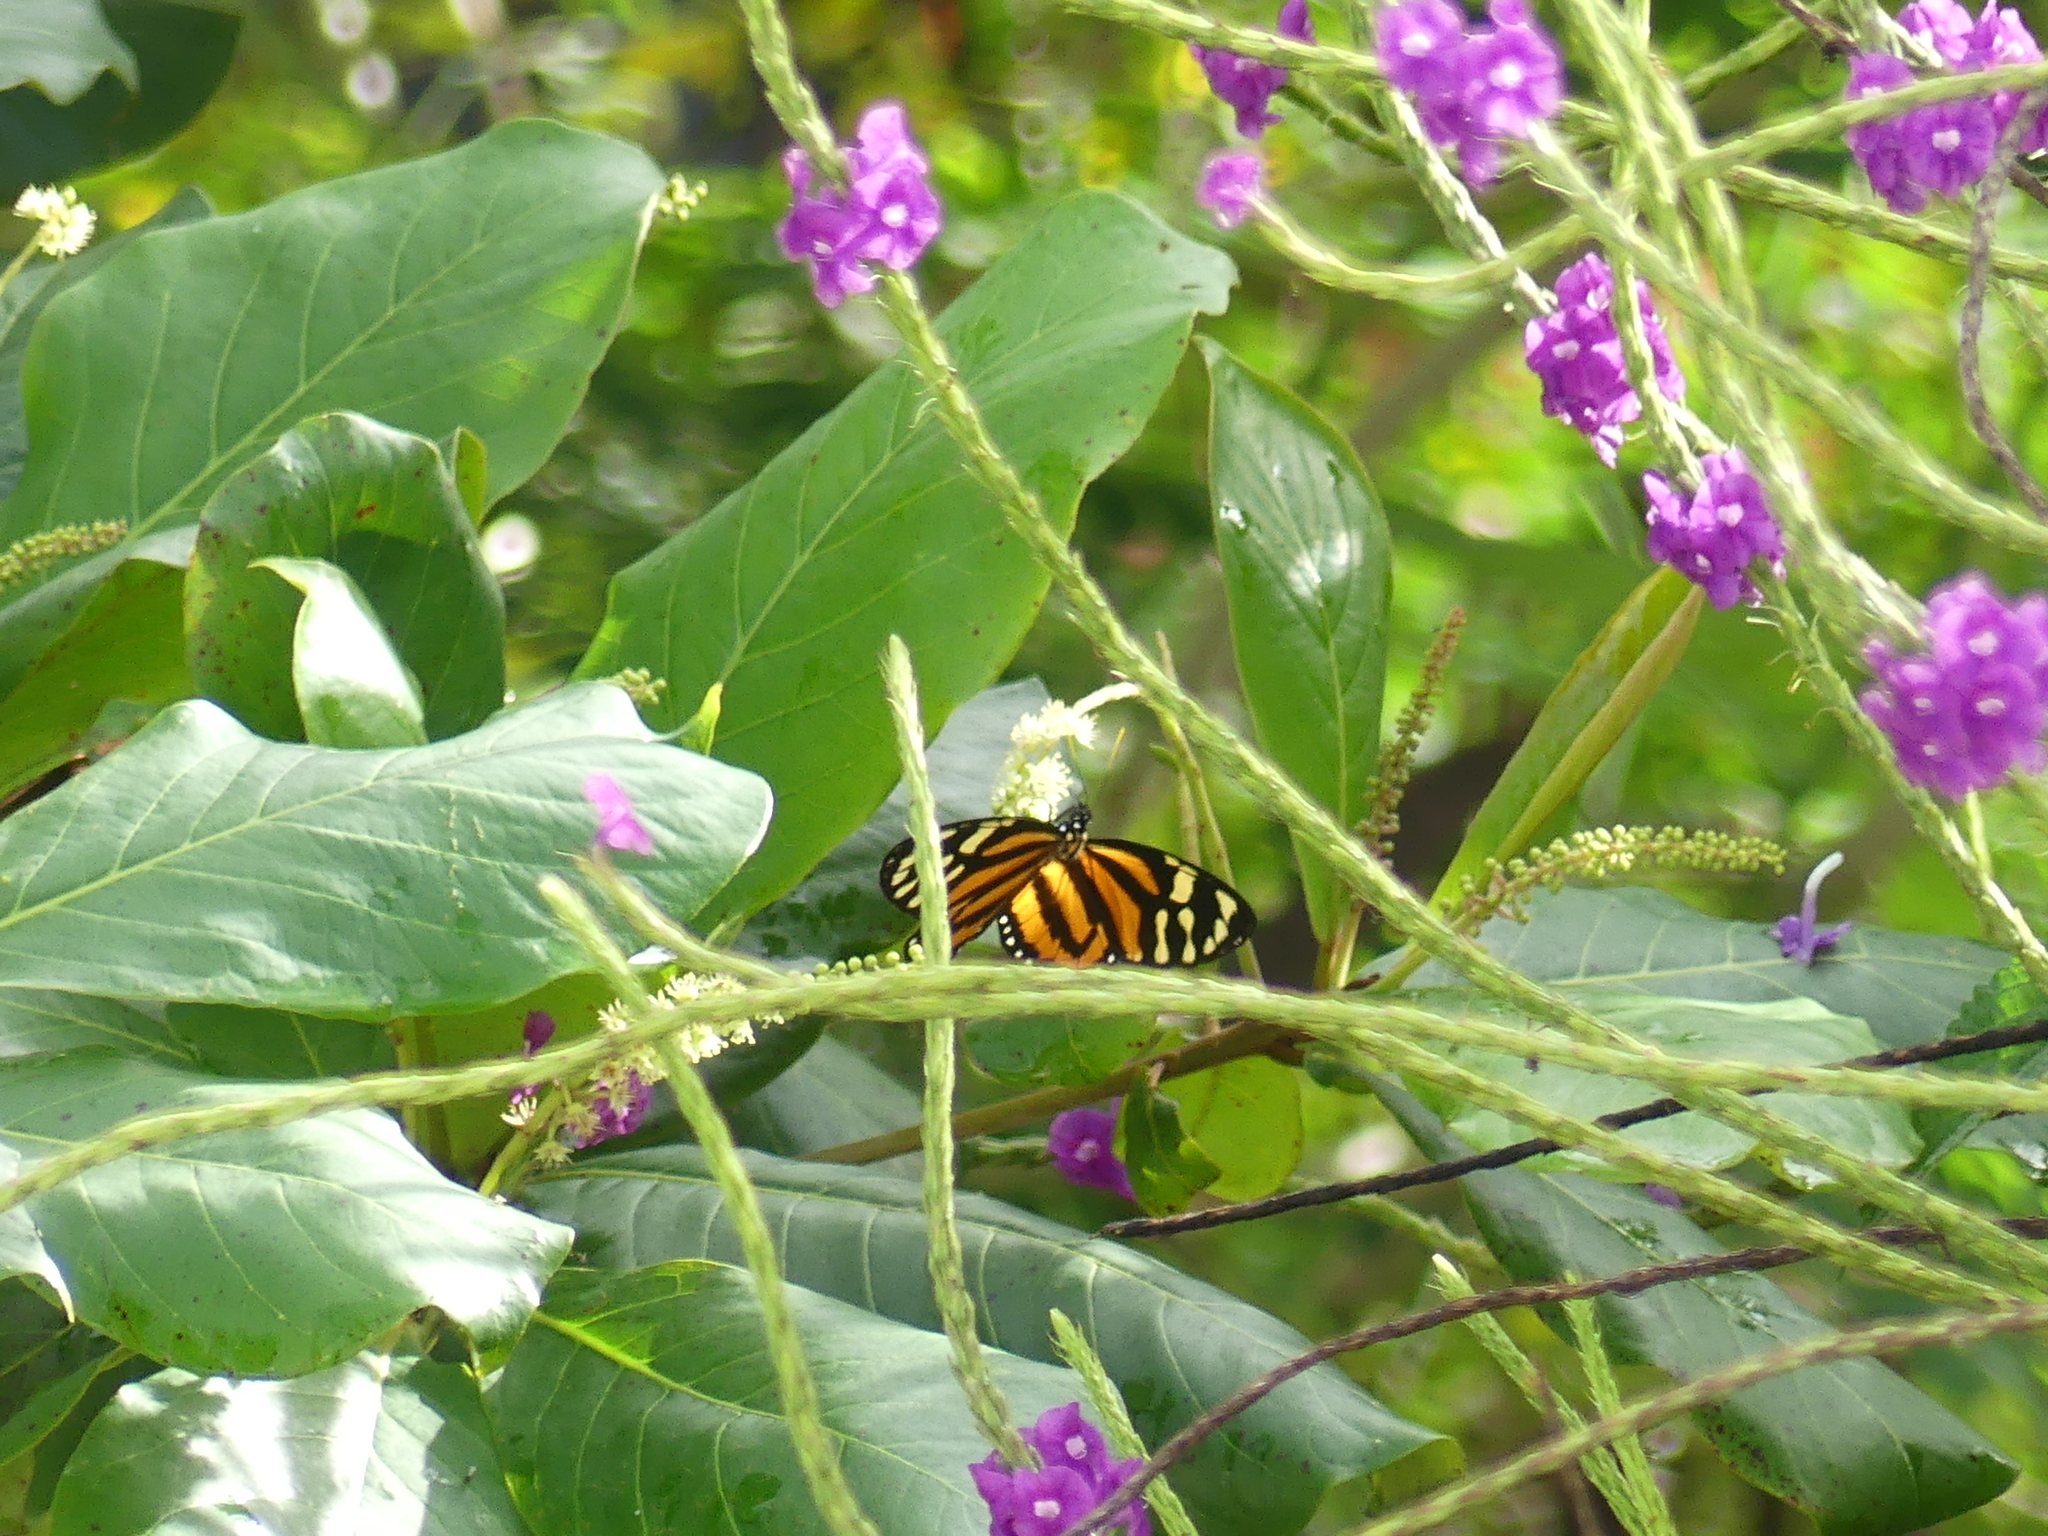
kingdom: Animalia
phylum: Arthropoda
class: Insecta
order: Lepidoptera
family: Nymphalidae
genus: Lycorea
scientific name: Lycorea cleobaea
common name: Tiger mimic-queen
